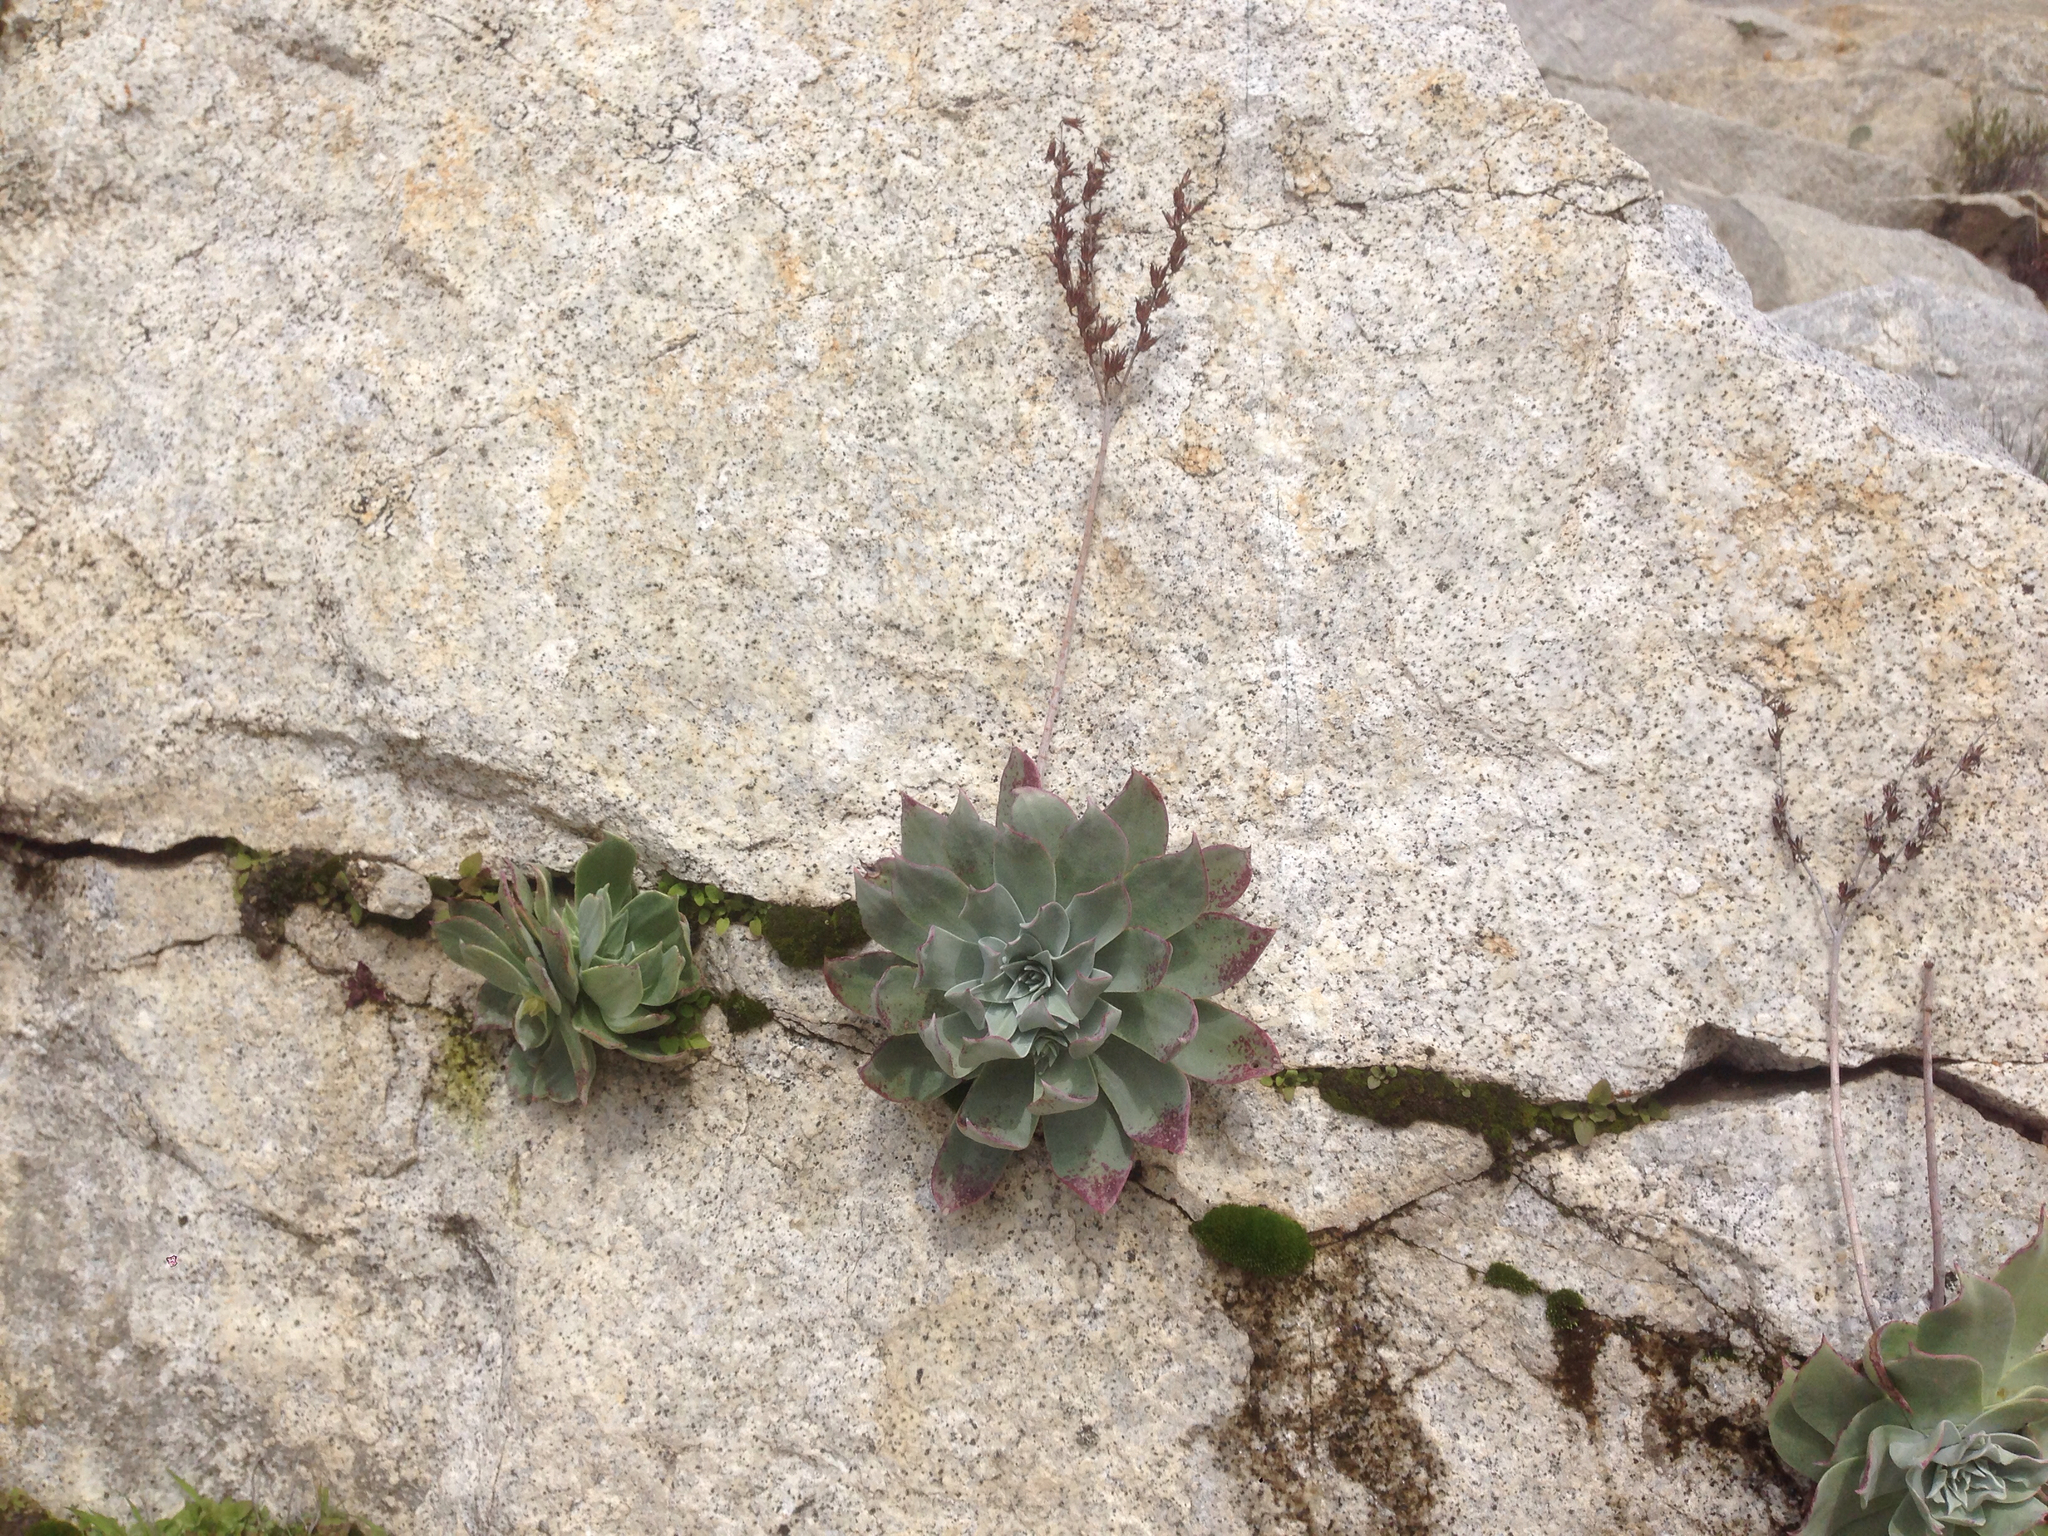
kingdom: Plantae
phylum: Tracheophyta
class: Magnoliopsida
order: Saxifragales
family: Crassulaceae
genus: Dudleya
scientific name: Dudleya arizonica
